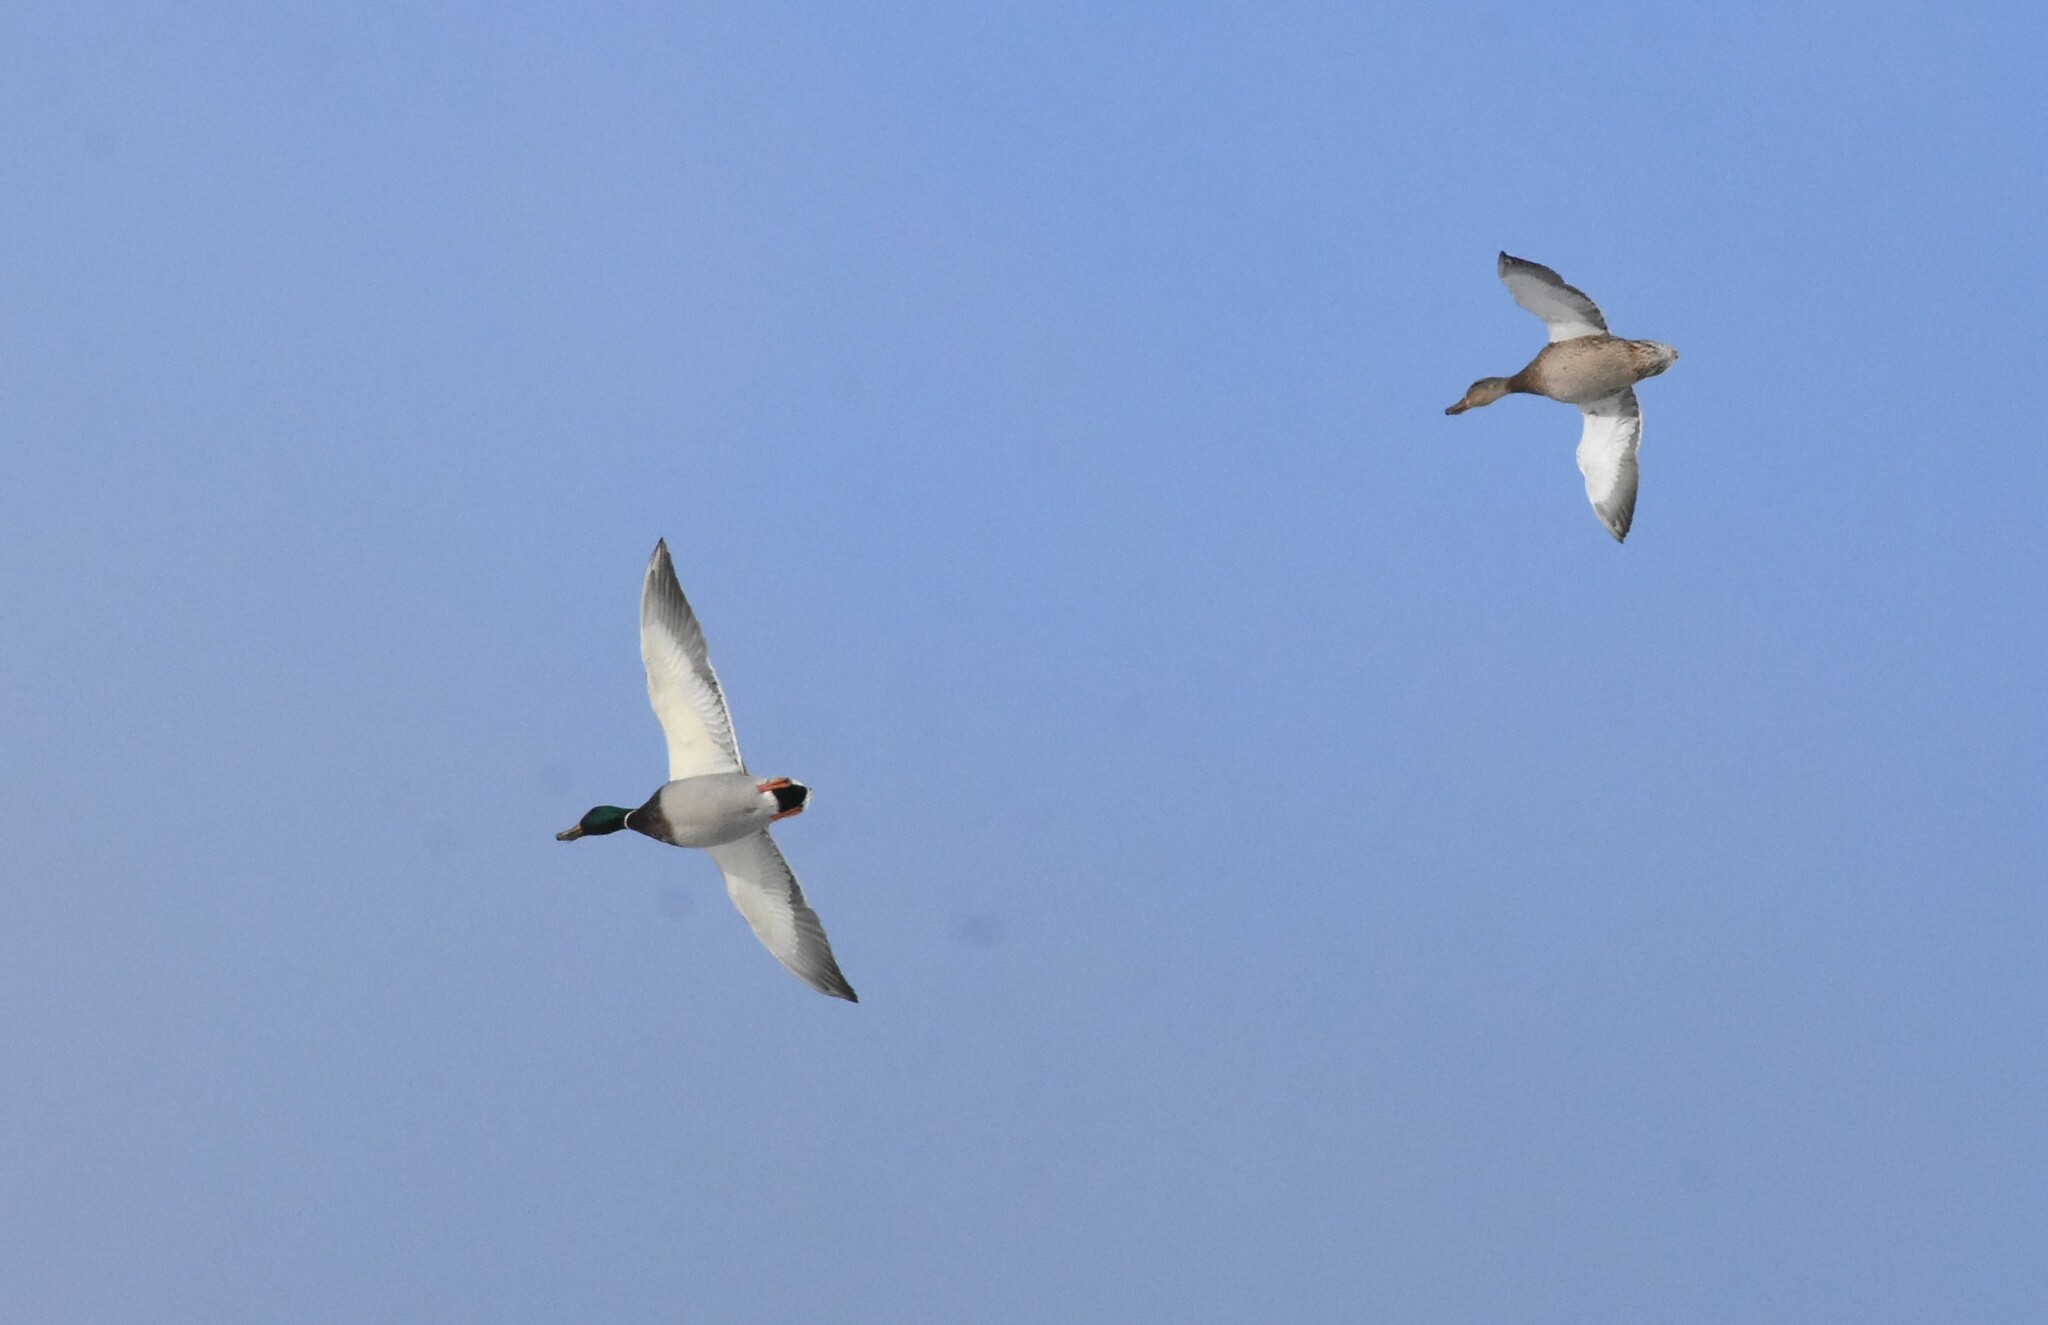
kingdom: Animalia
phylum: Chordata
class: Aves
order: Anseriformes
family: Anatidae
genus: Anas
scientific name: Anas platyrhynchos
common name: Mallard
